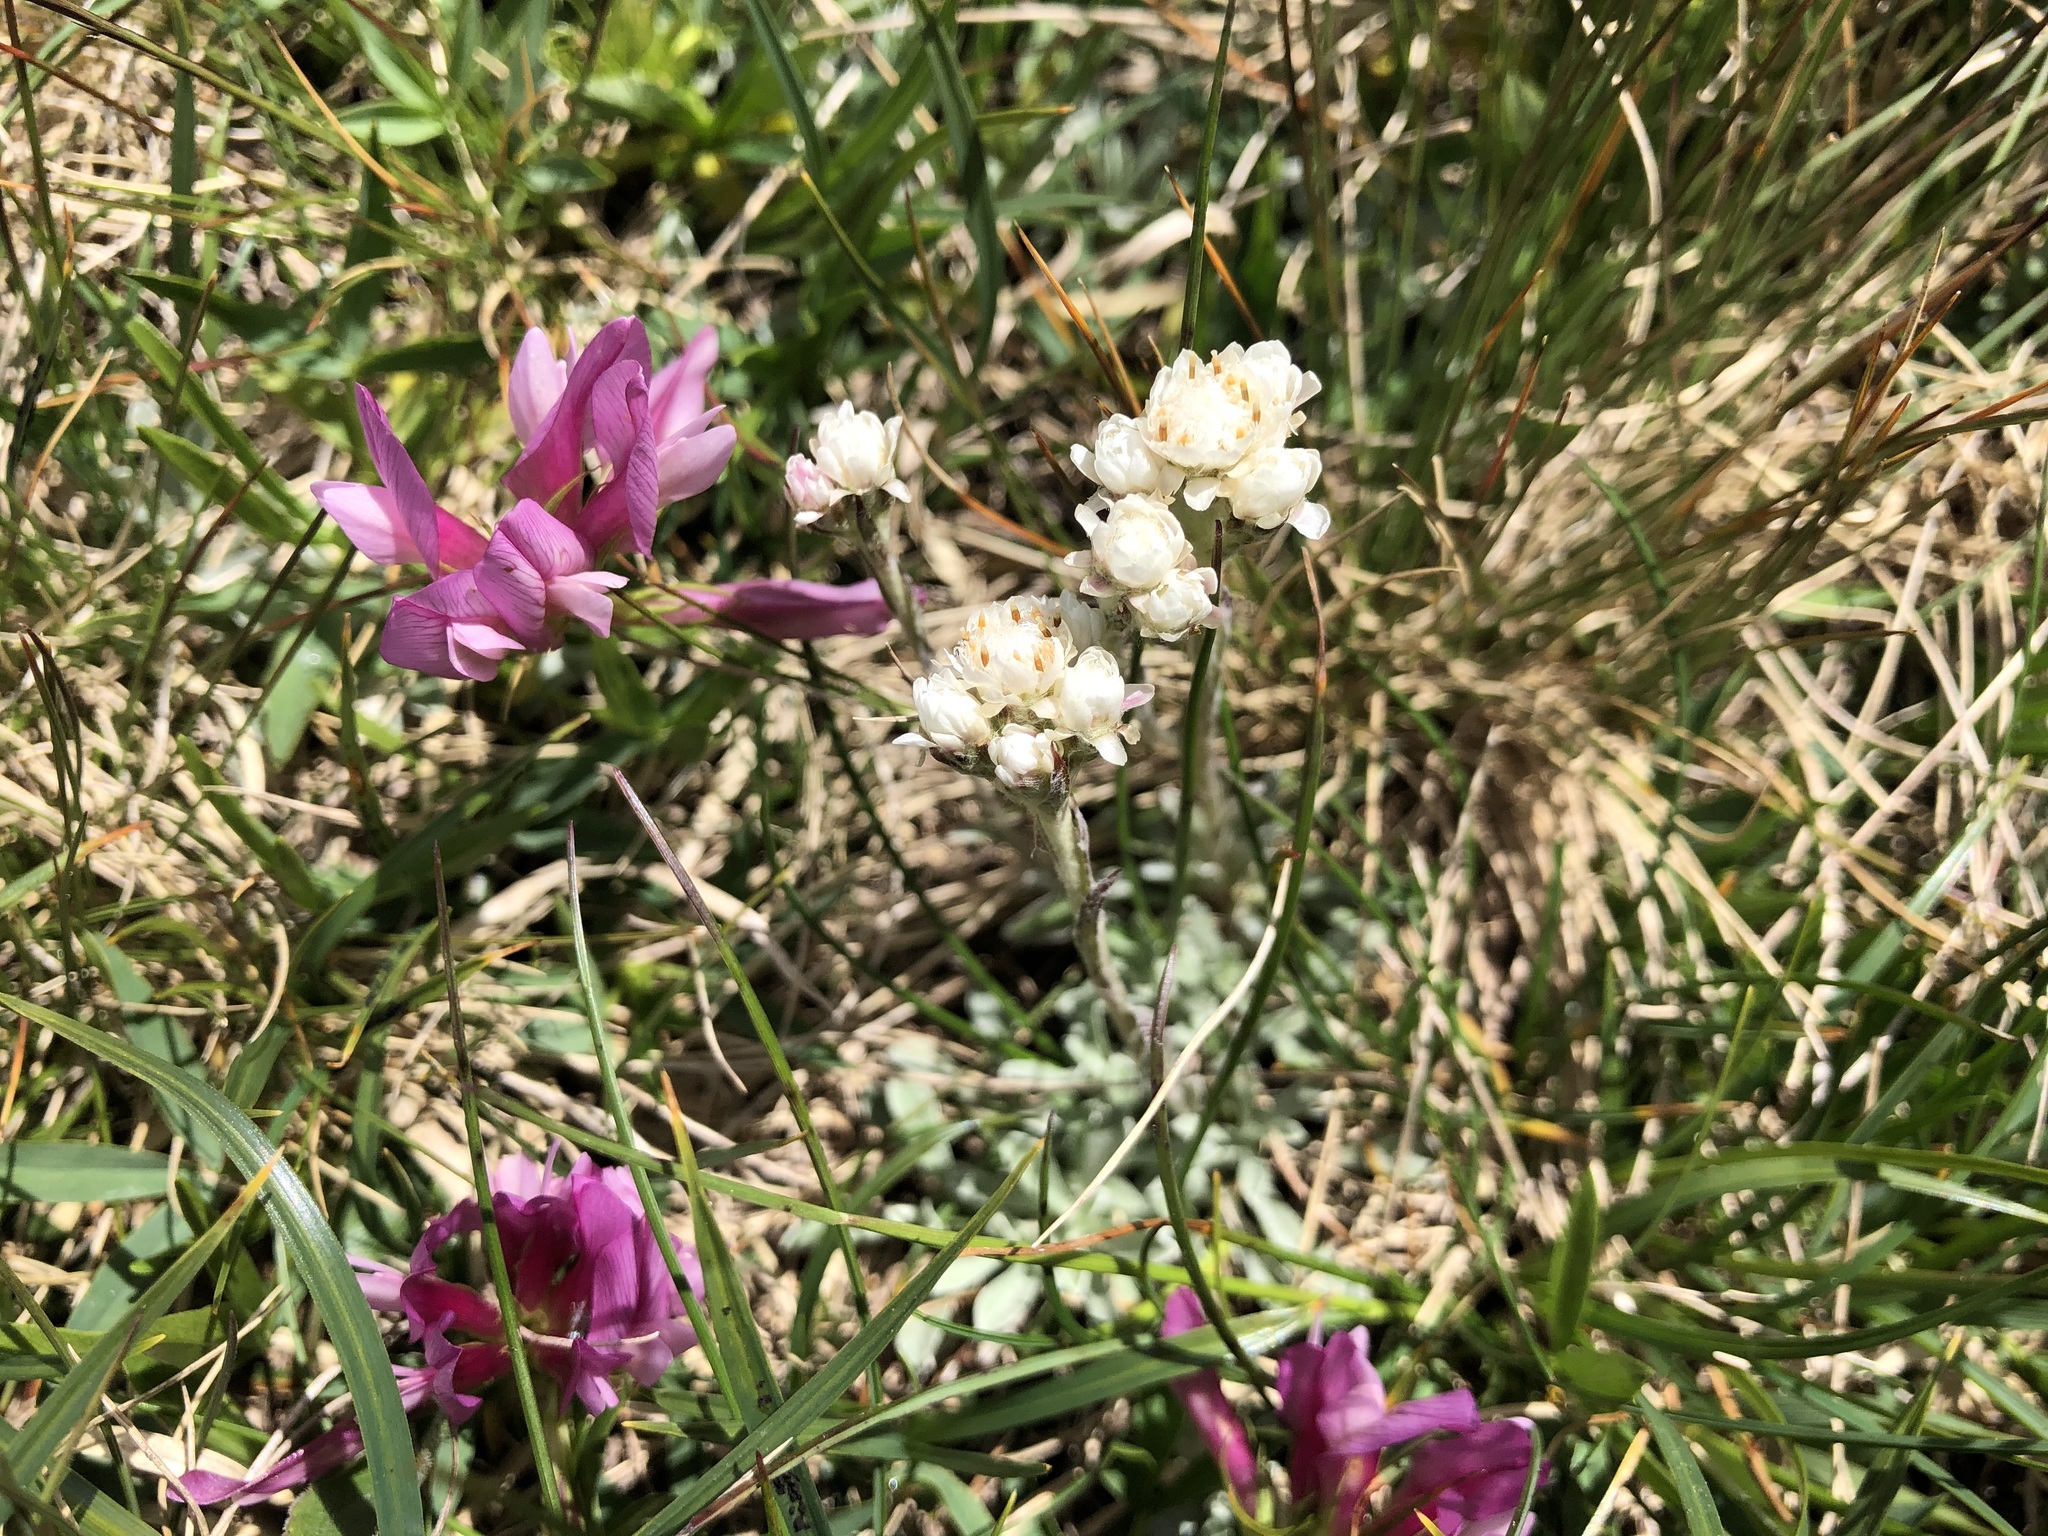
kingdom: Plantae
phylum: Tracheophyta
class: Magnoliopsida
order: Asterales
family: Asteraceae
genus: Antennaria
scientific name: Antennaria dioica
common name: Mountain everlasting
